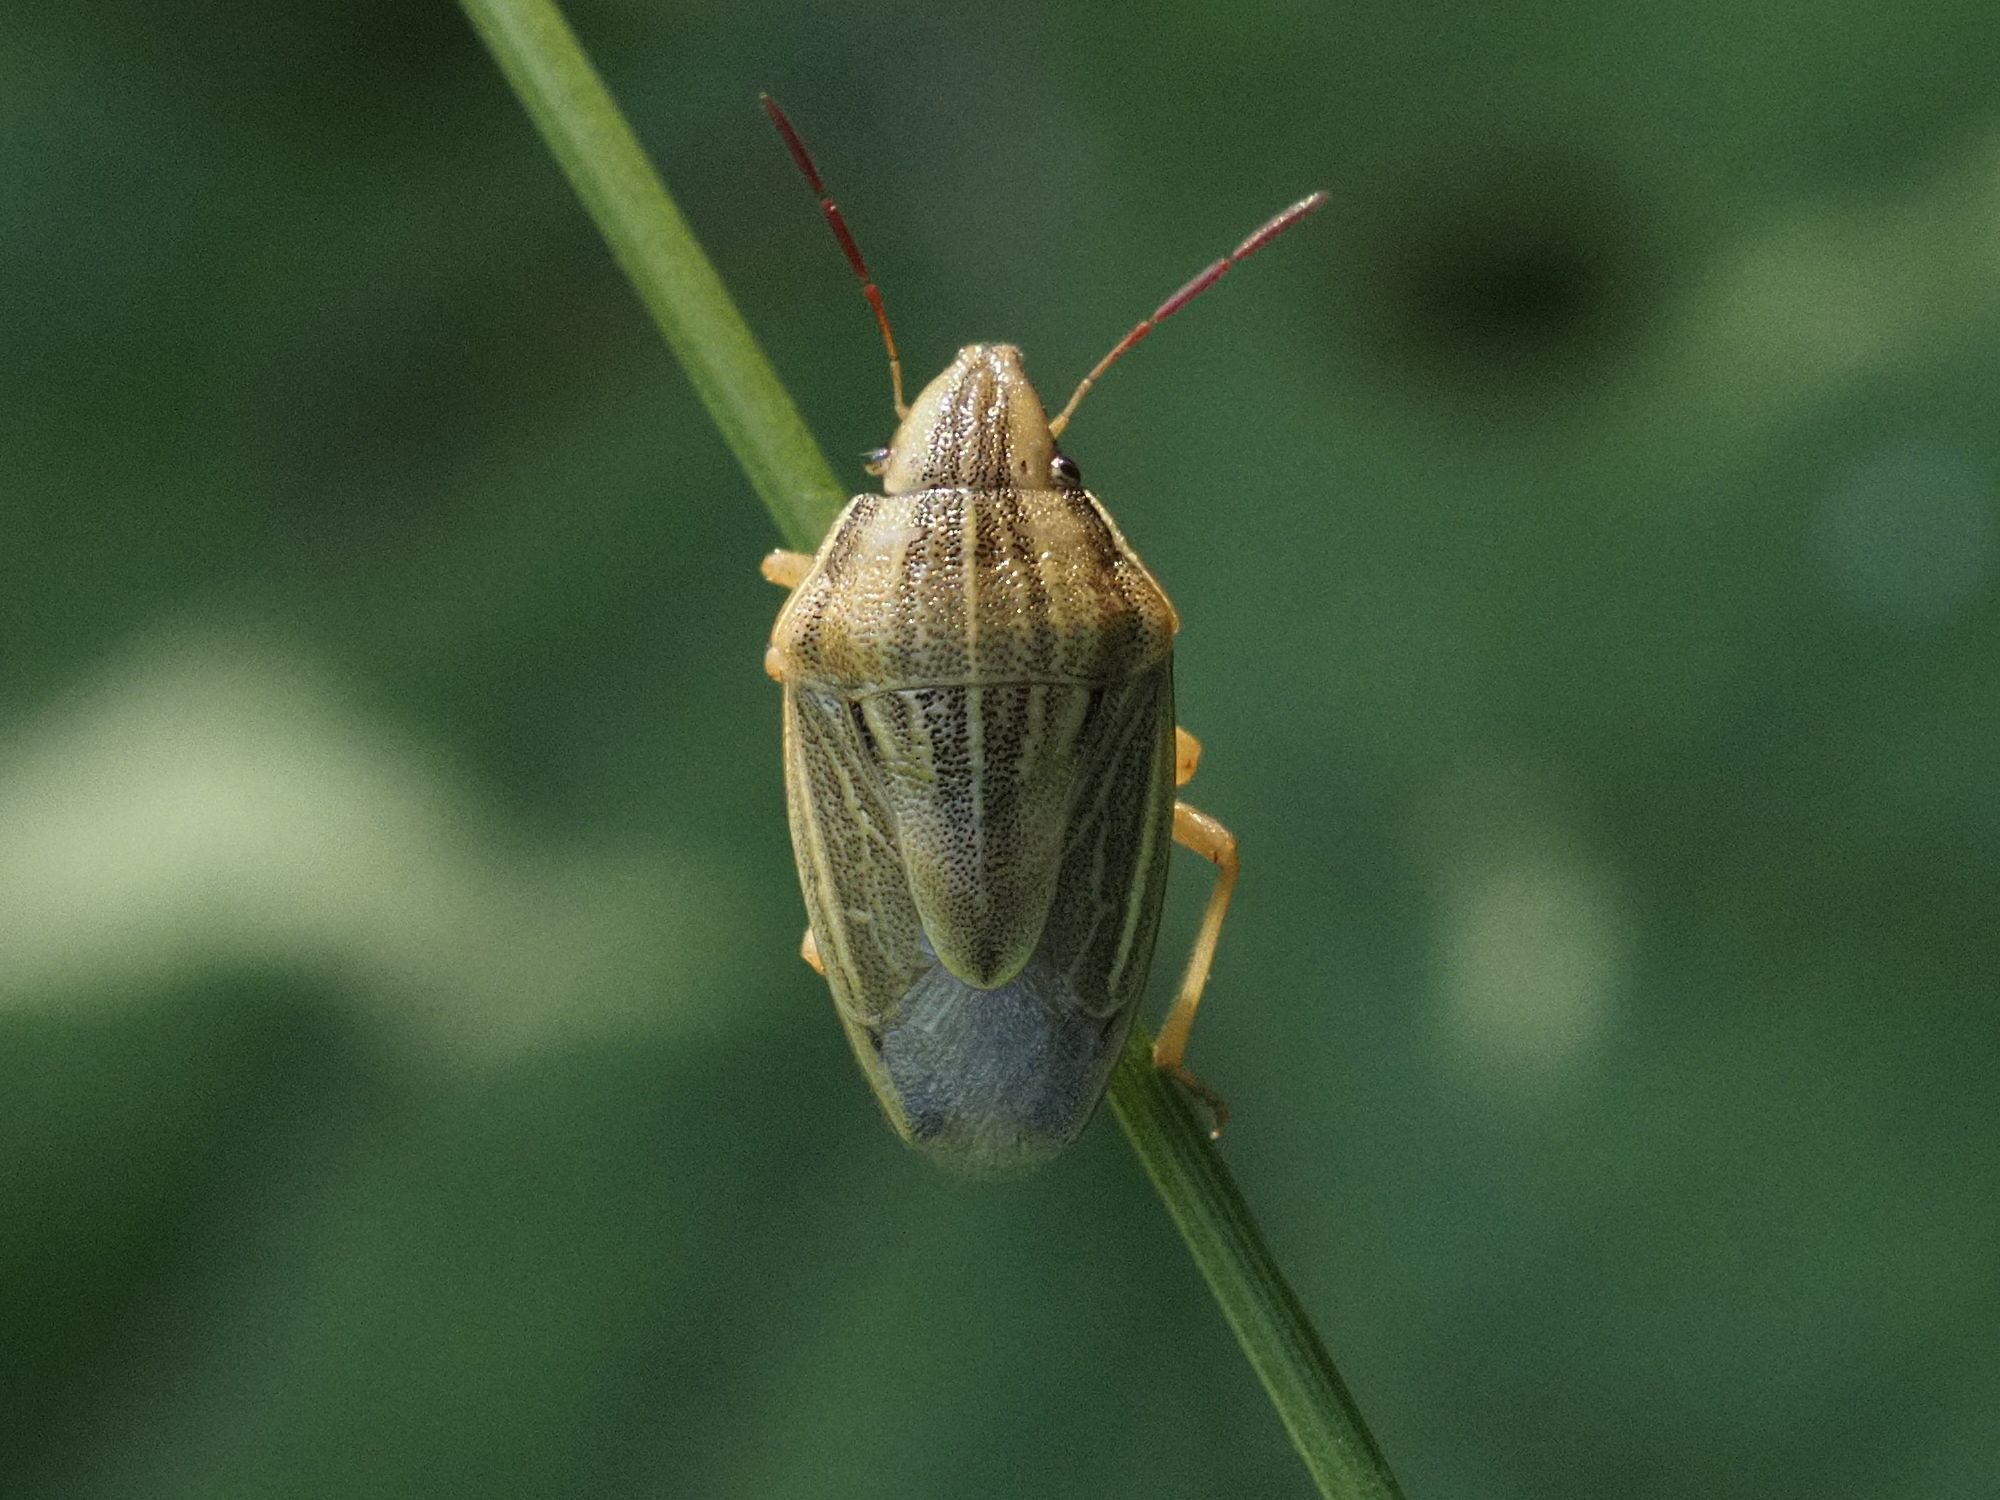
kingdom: Animalia
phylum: Arthropoda
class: Insecta
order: Hemiptera
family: Pentatomidae
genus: Aelia
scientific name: Aelia acuminata
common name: Bishop's mitre
